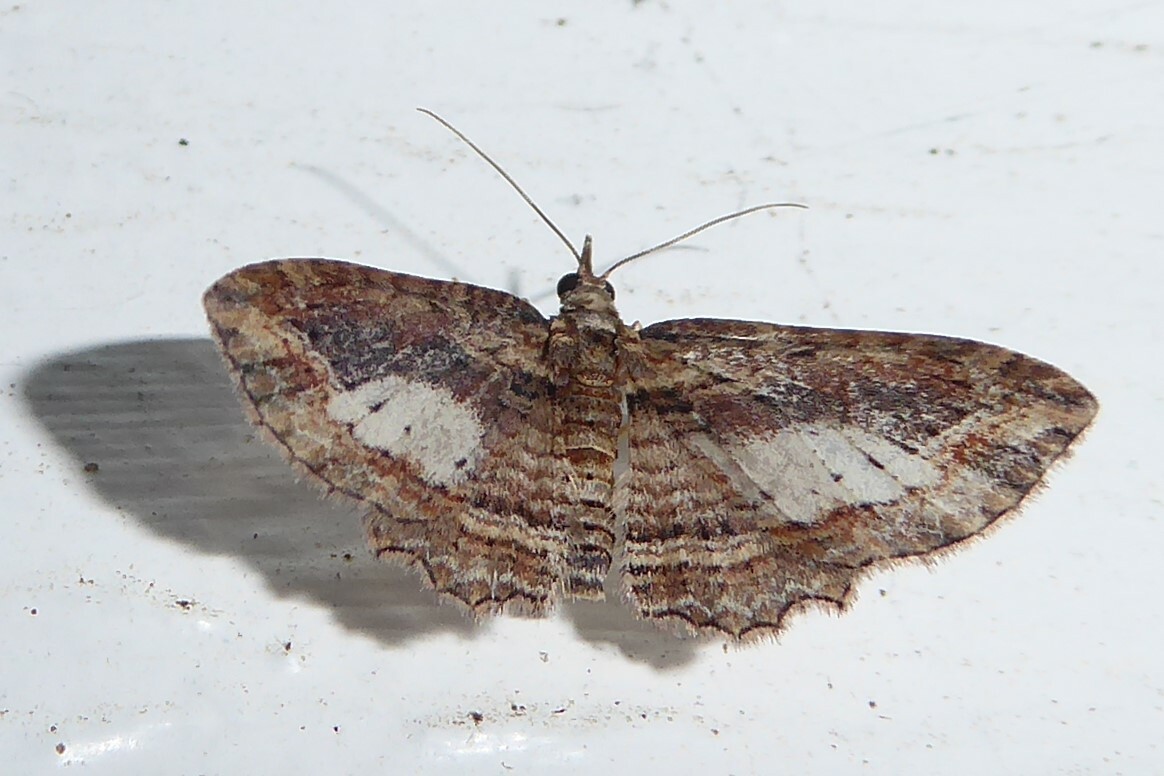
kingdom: Animalia
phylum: Arthropoda
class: Insecta
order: Lepidoptera
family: Geometridae
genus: Chloroclystis
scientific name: Chloroclystis filata
